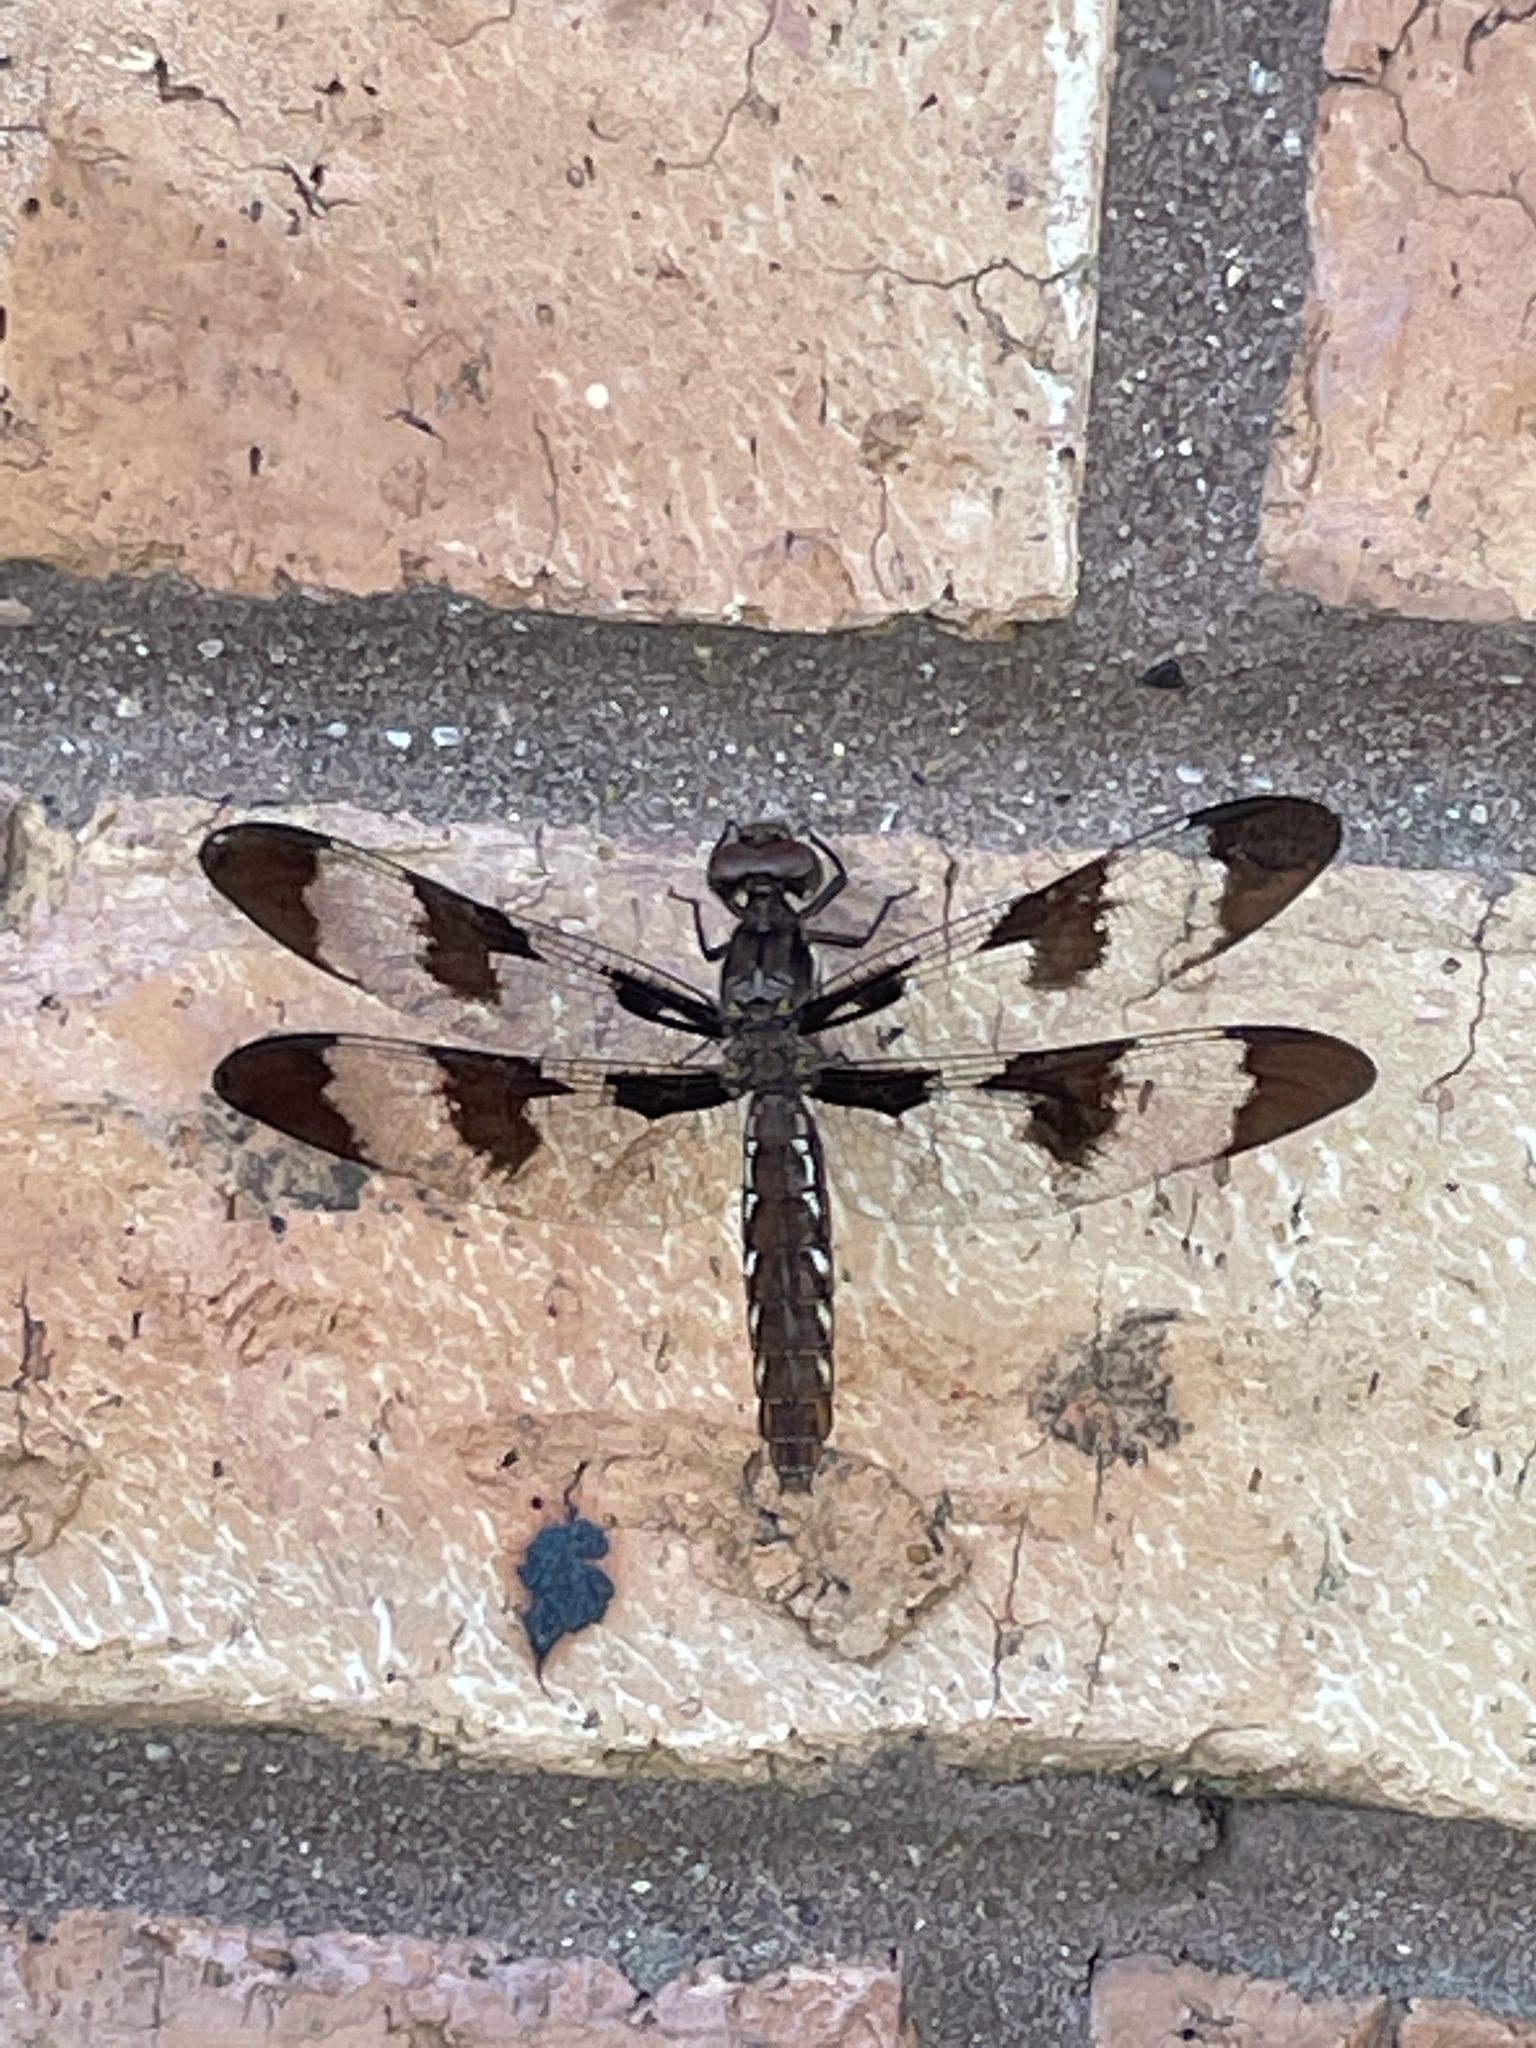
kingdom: Animalia
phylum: Arthropoda
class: Insecta
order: Odonata
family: Libellulidae
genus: Plathemis
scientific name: Plathemis lydia
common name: Common whitetail
